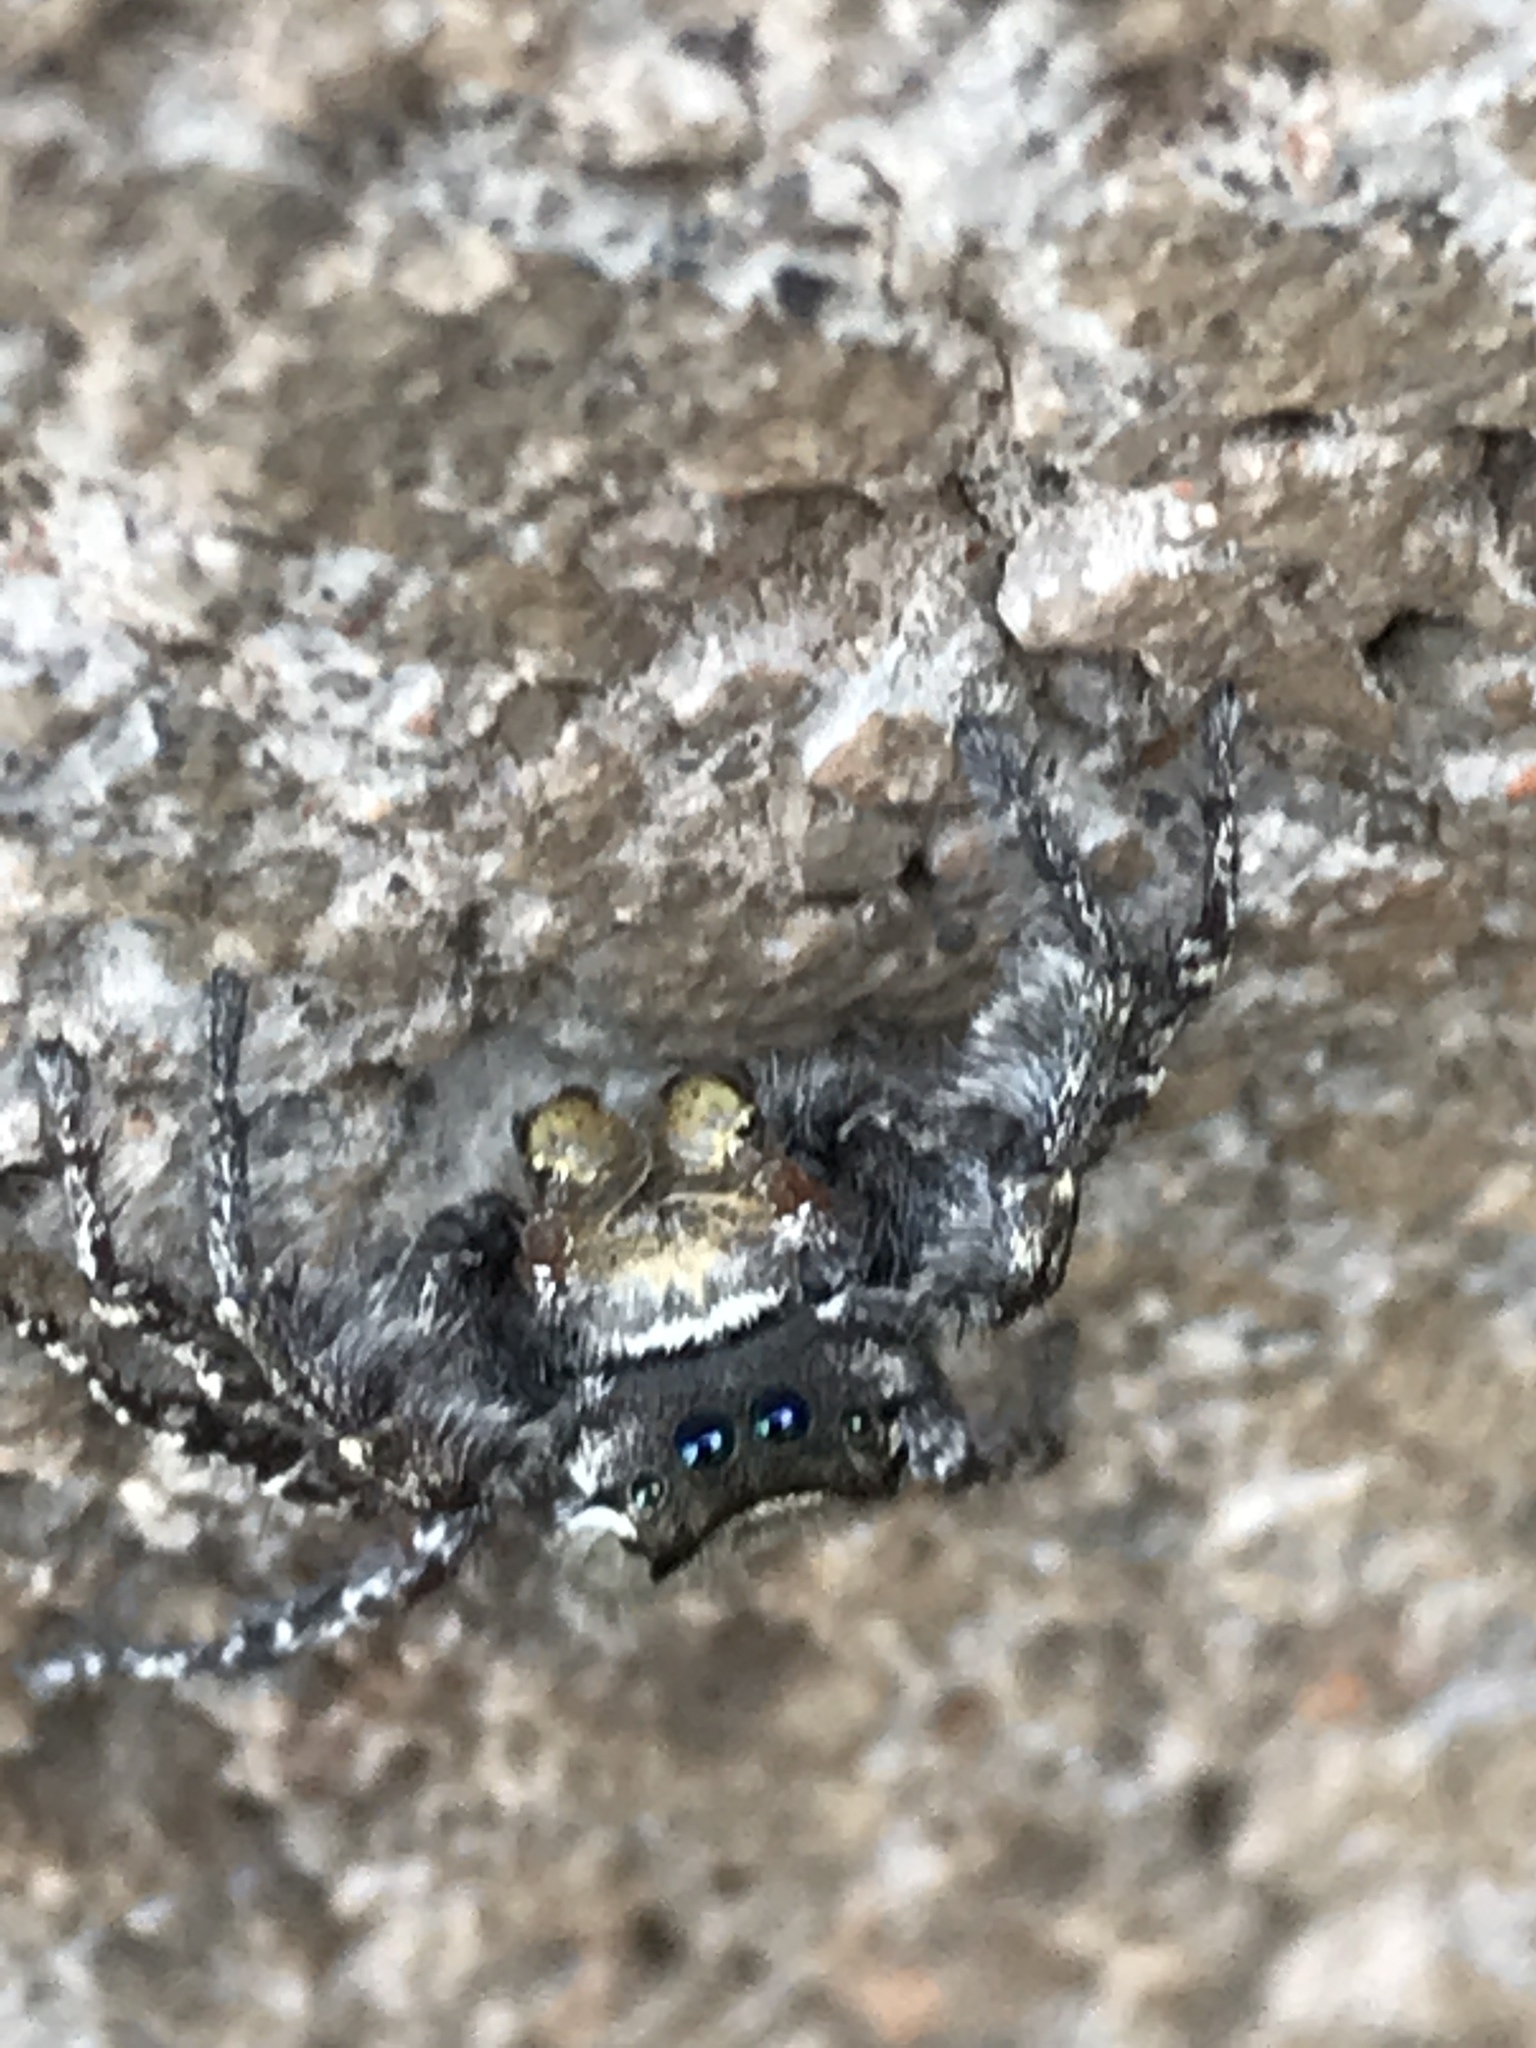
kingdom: Animalia
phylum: Arthropoda
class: Arachnida
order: Araneae
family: Salticidae
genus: Phidippus
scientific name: Phidippus carolinensis
